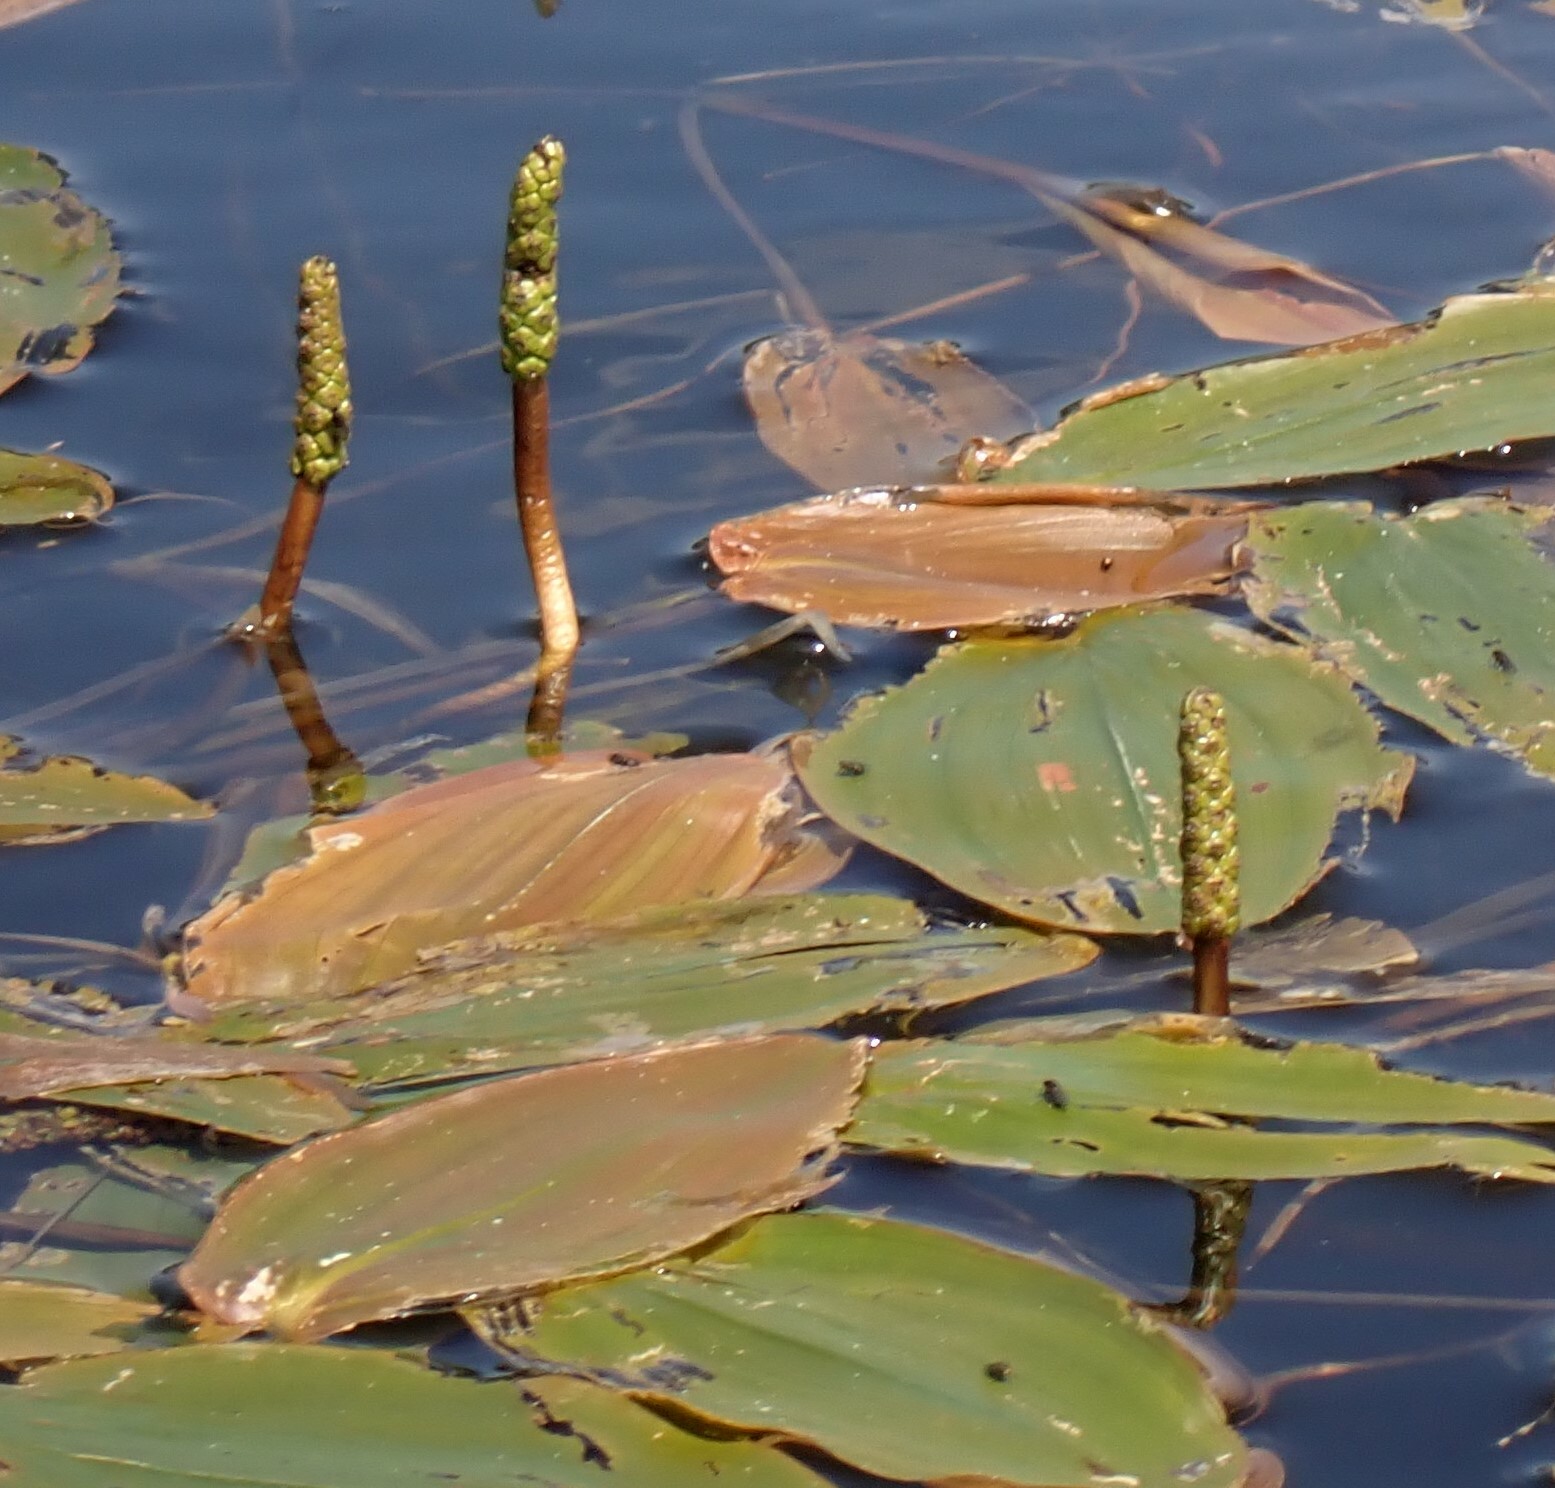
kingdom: Plantae
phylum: Tracheophyta
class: Liliopsida
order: Alismatales
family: Potamogetonaceae
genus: Potamogeton
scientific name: Potamogeton natans
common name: Broad-leaved pondweed
